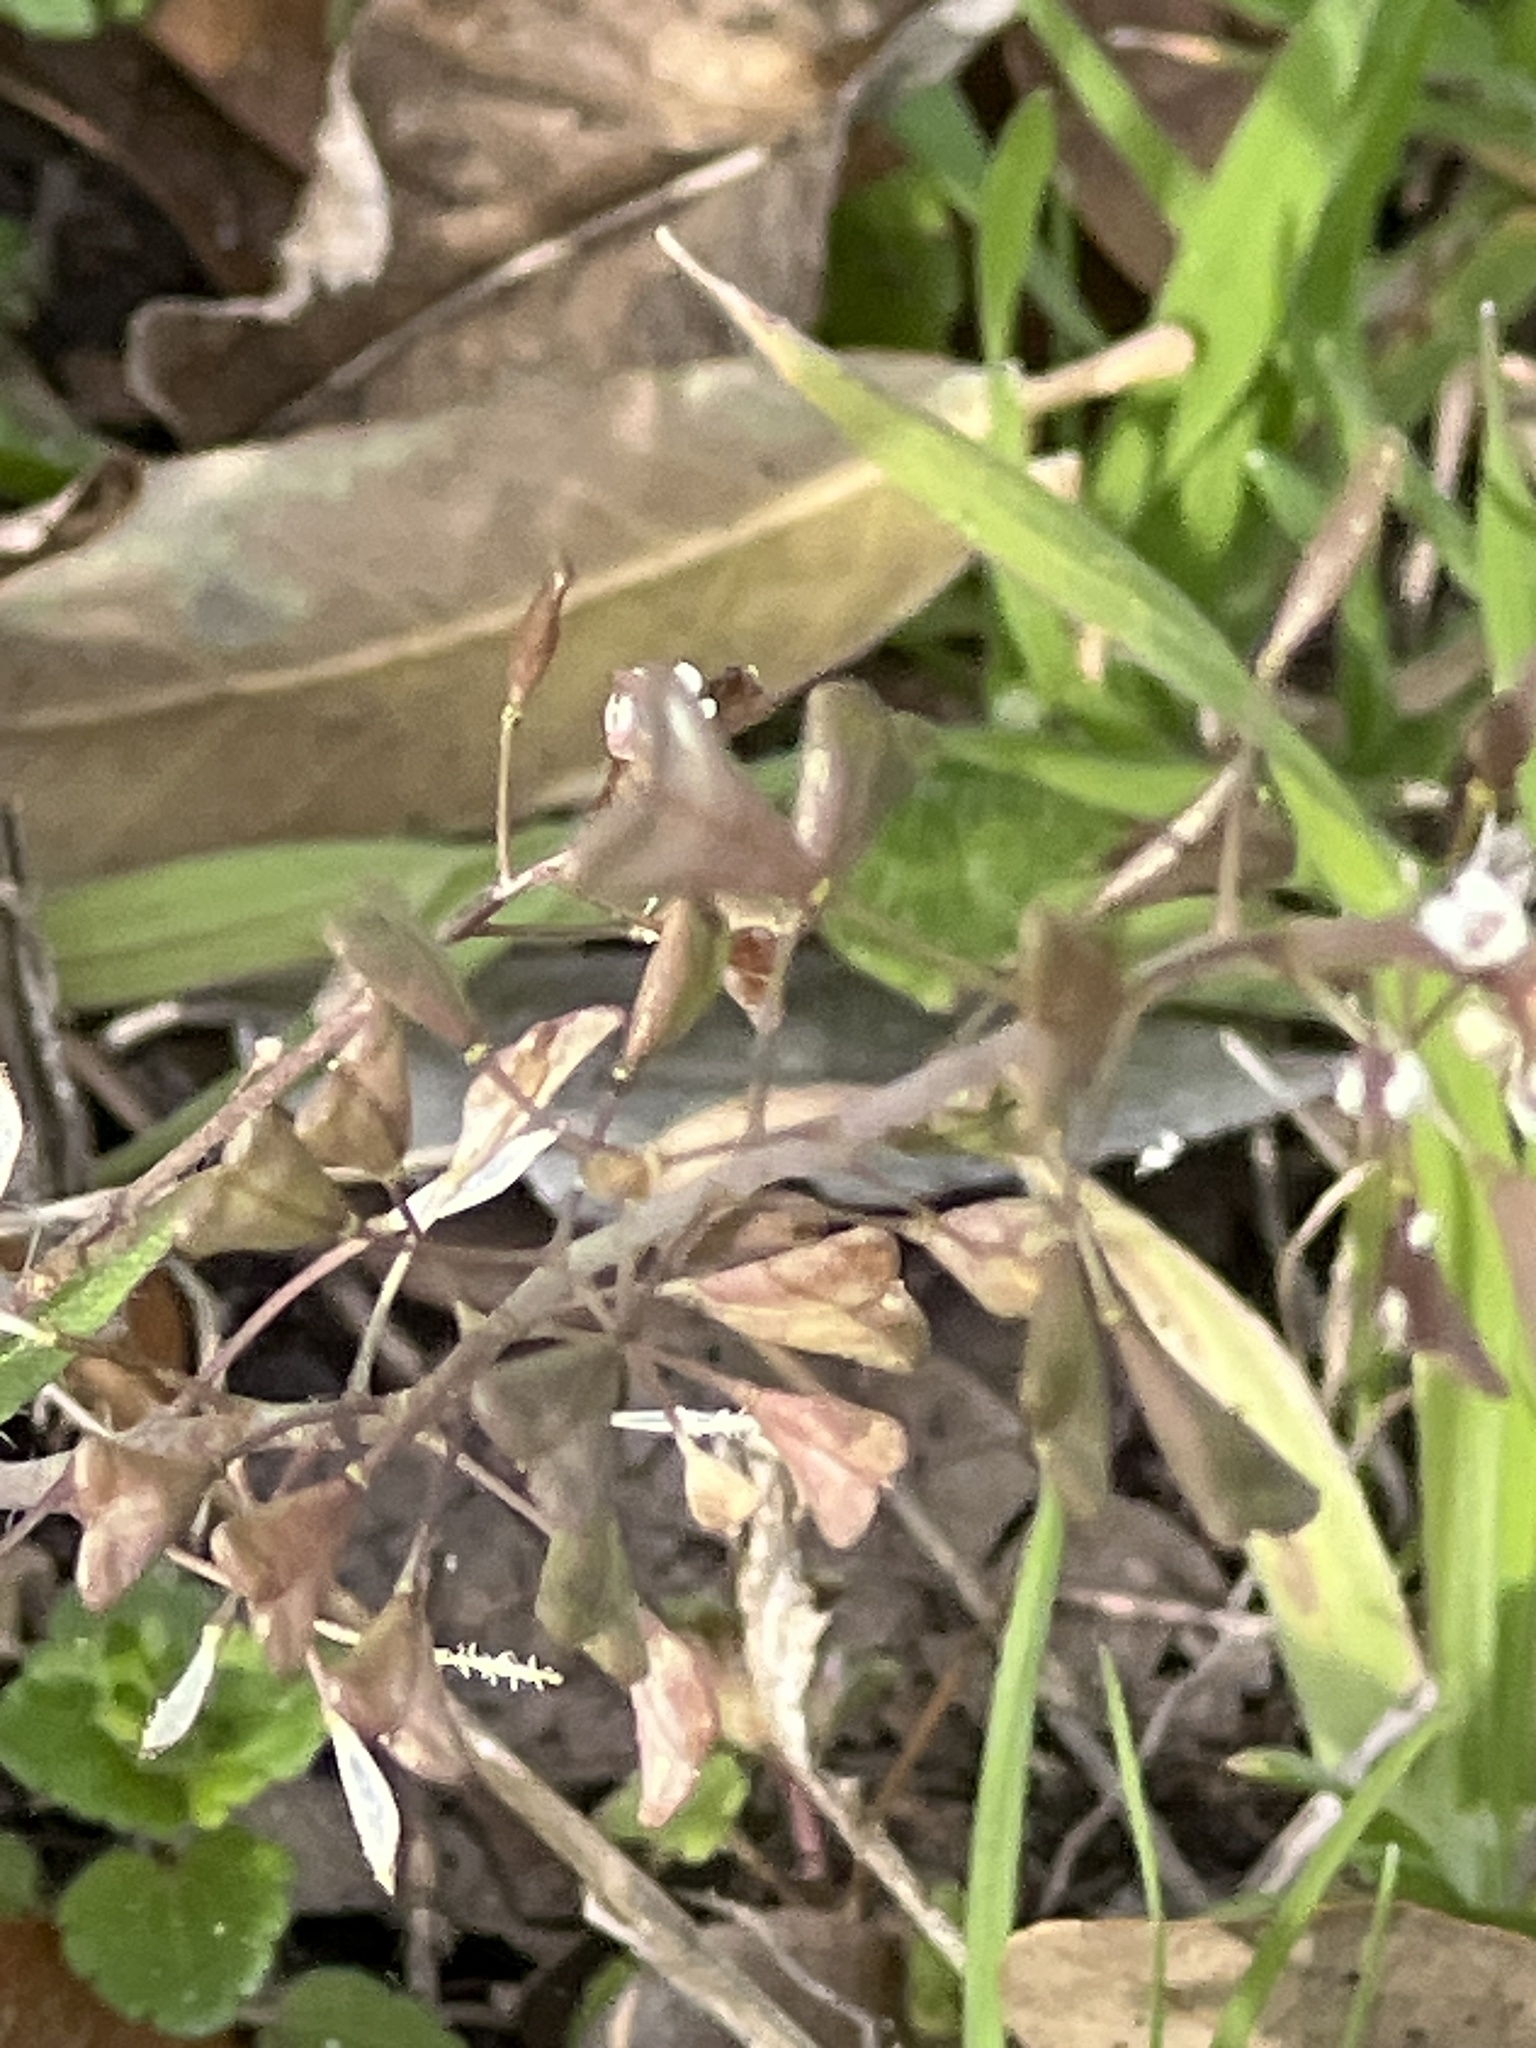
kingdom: Plantae
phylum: Tracheophyta
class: Magnoliopsida
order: Brassicales
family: Brassicaceae
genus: Capsella
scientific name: Capsella bursa-pastoris
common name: Shepherd's purse
